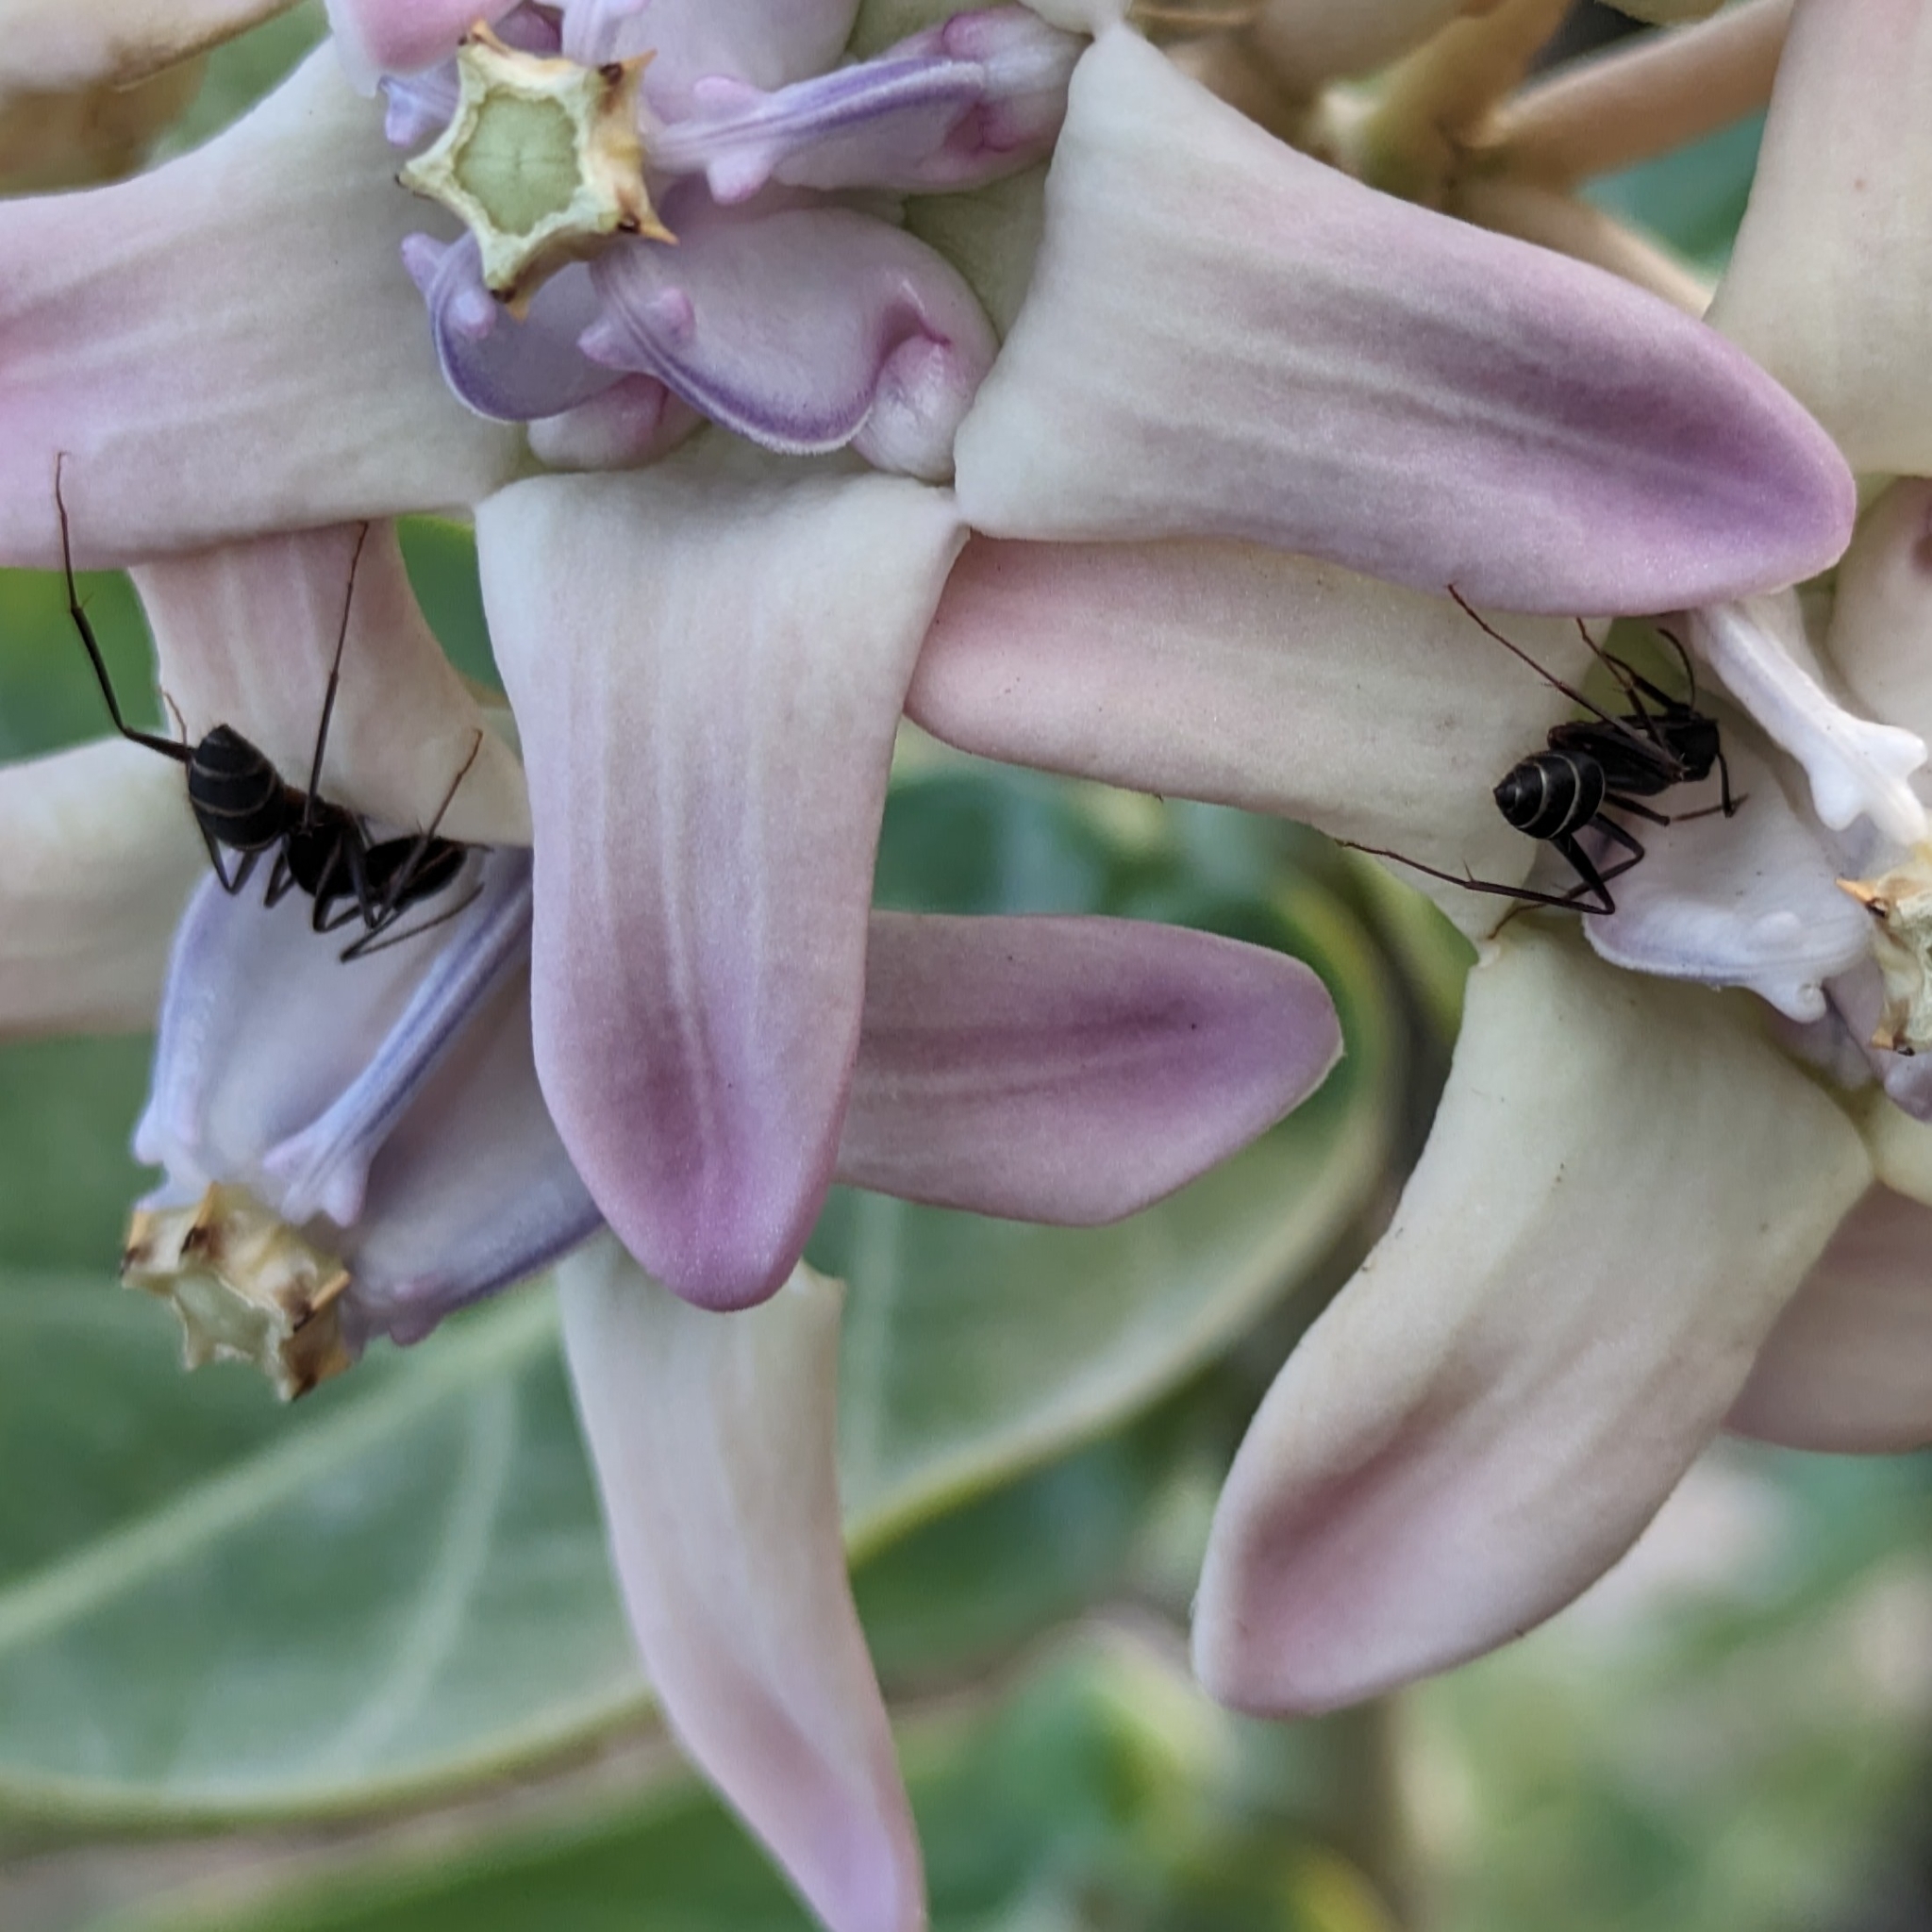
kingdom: Animalia
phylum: Arthropoda
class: Insecta
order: Hymenoptera
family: Formicidae
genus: Camponotus
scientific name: Camponotus compressus
